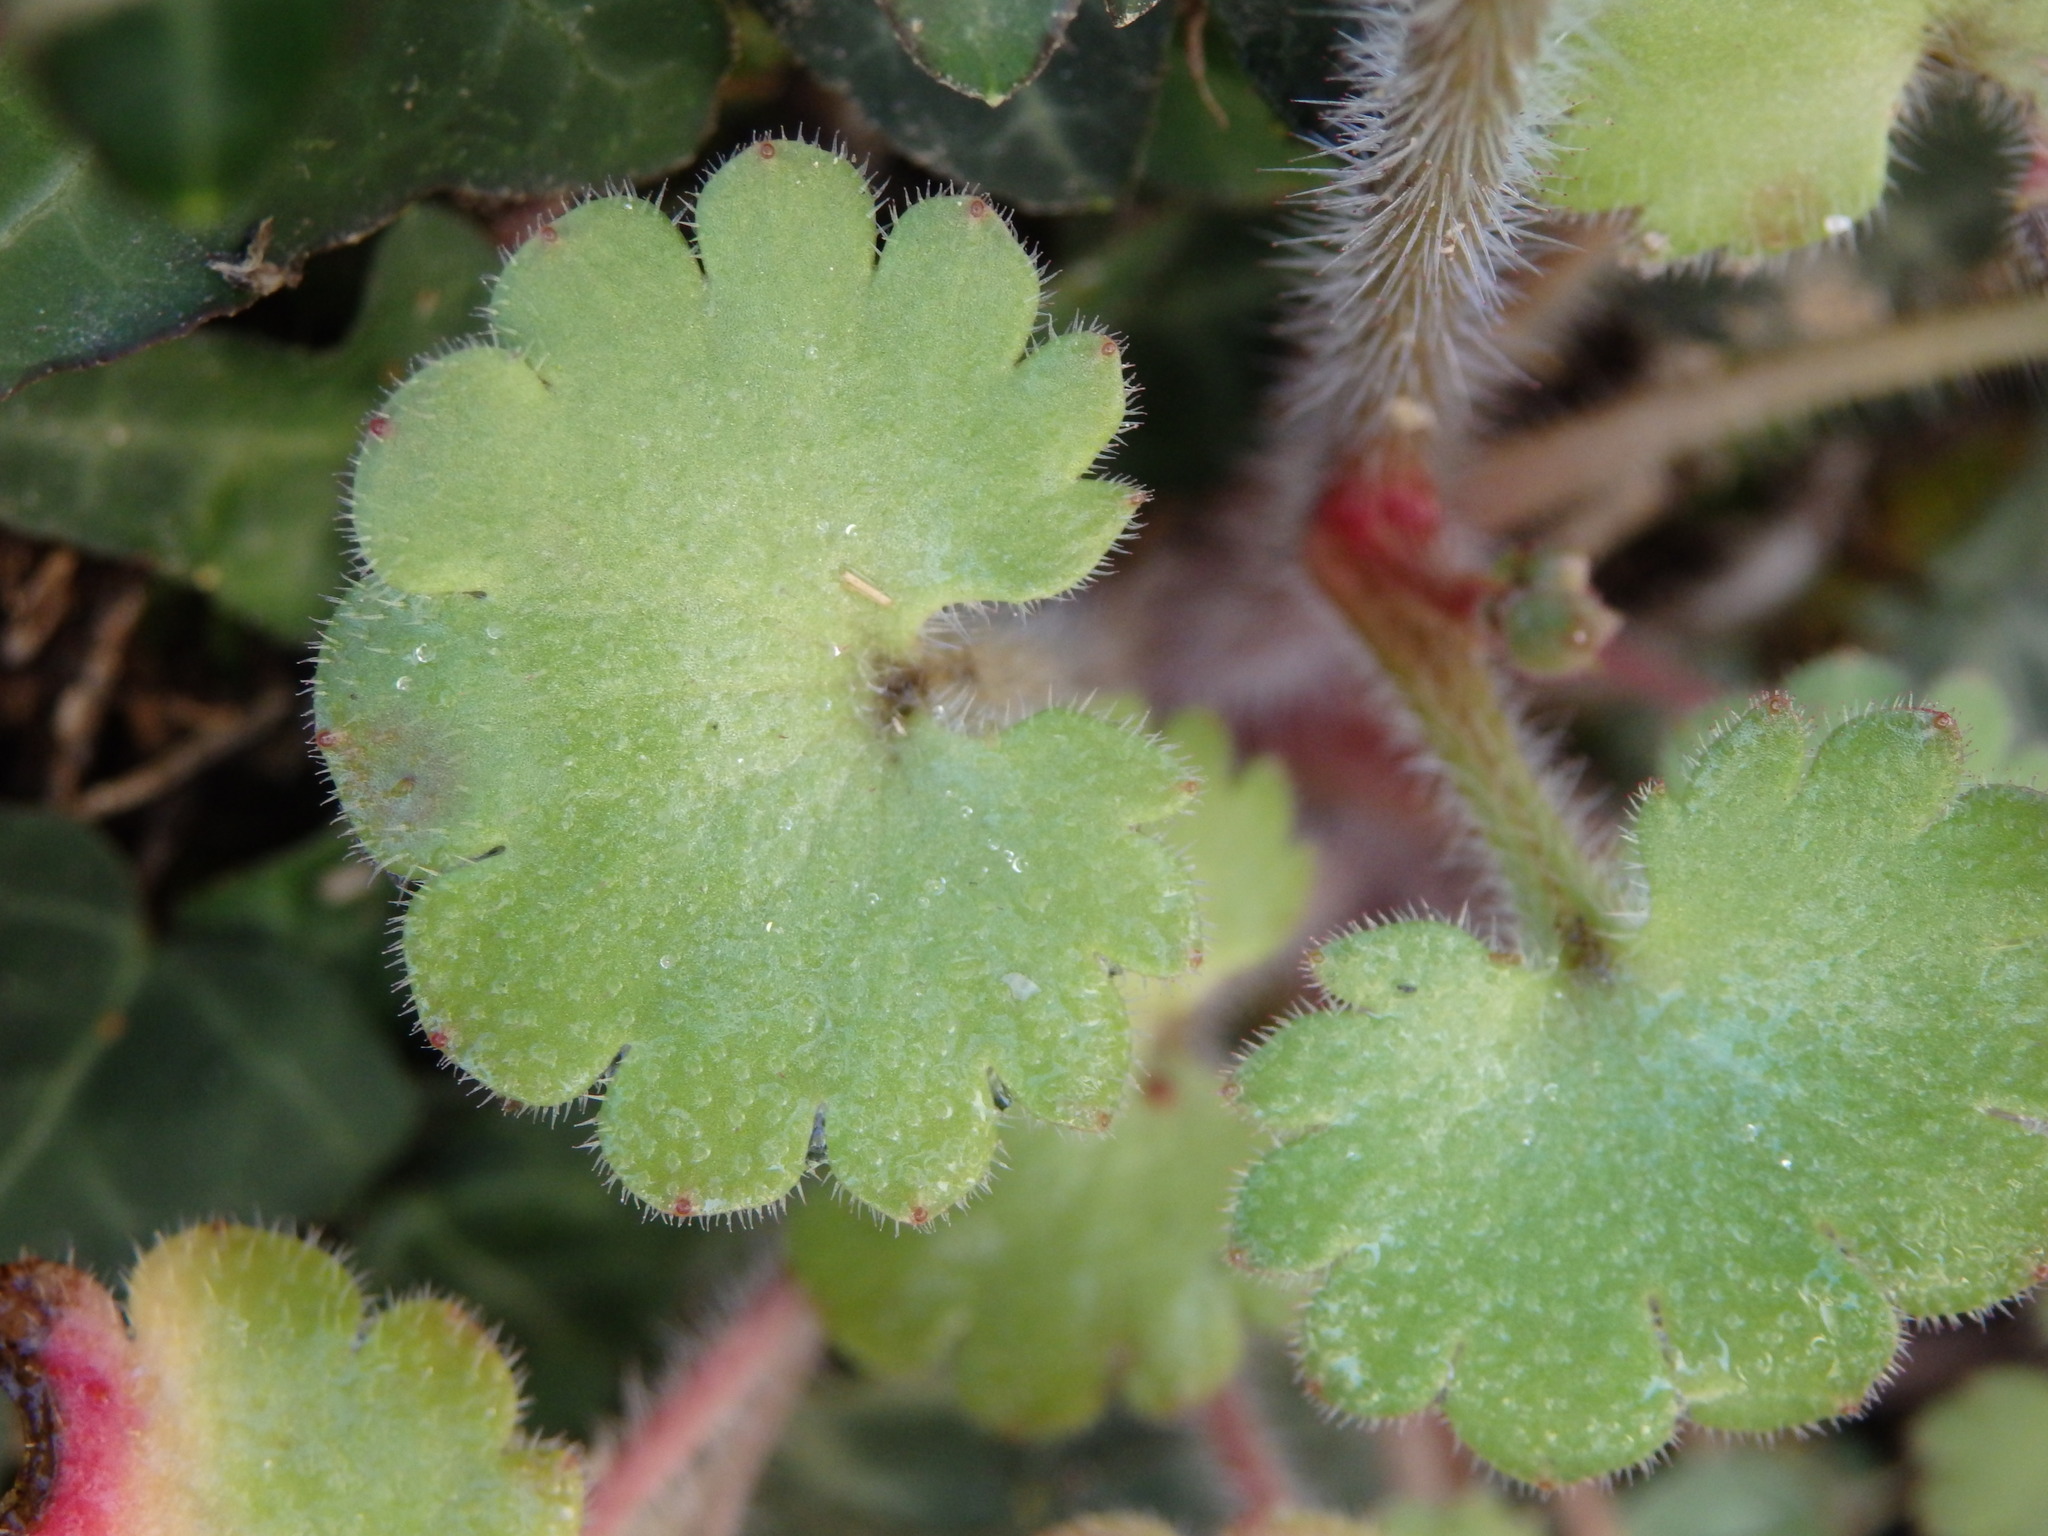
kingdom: Plantae
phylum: Tracheophyta
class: Magnoliopsida
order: Saxifragales
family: Saxifragaceae
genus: Saxifraga
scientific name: Saxifraga granulata
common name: Meadow saxifrage
